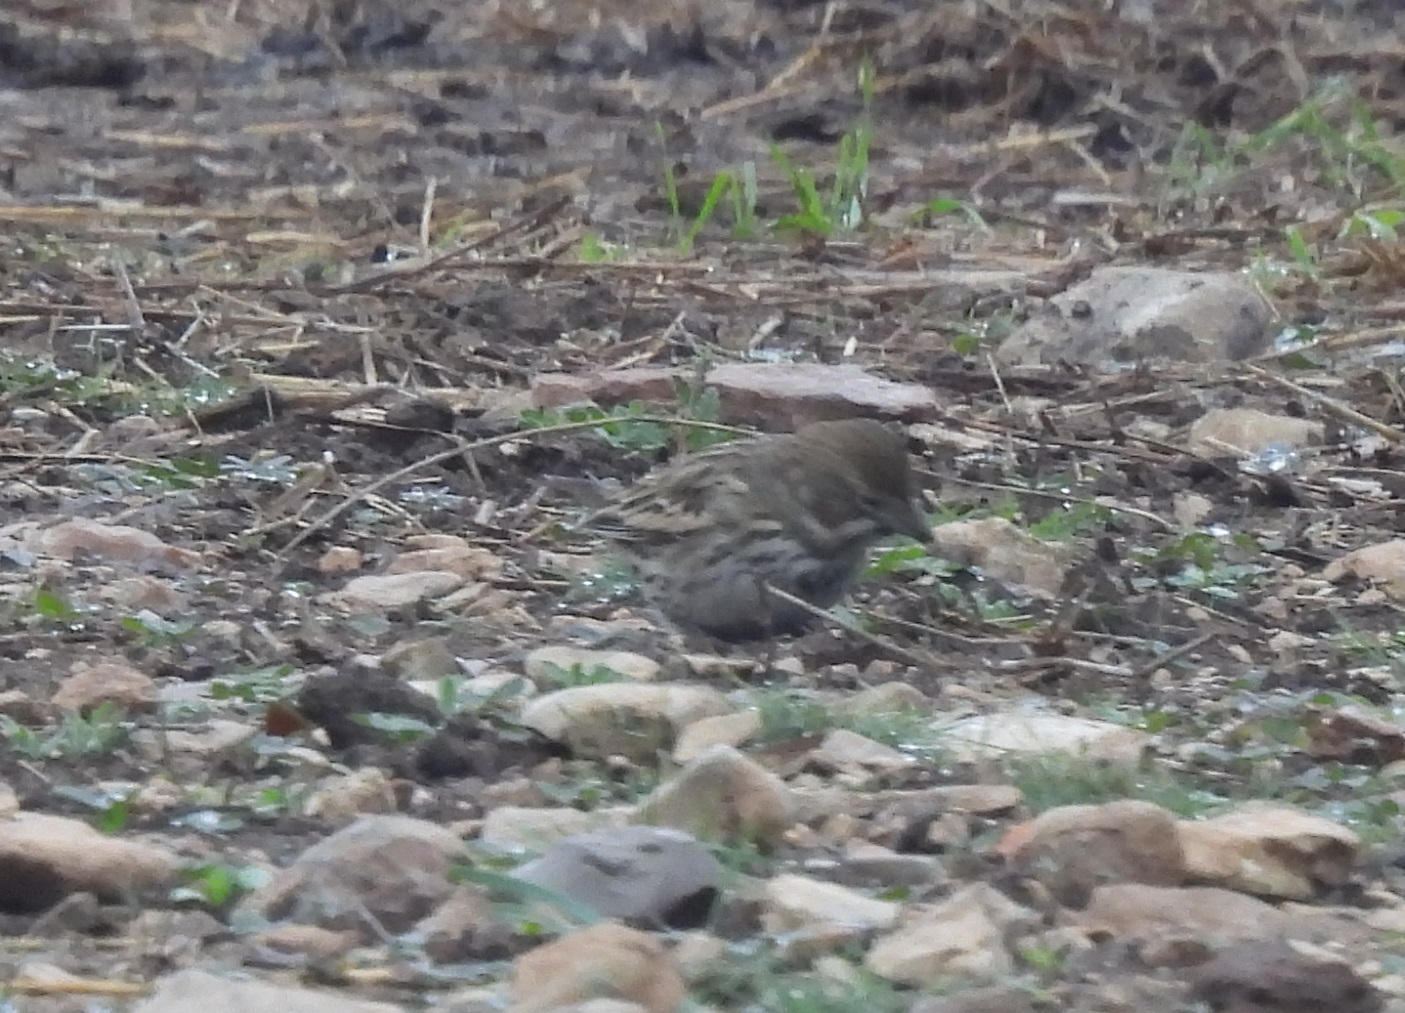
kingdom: Animalia
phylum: Chordata
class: Aves
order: Passeriformes
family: Passerellidae
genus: Calamospiza
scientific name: Calamospiza melanocorys
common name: Lark bunting
